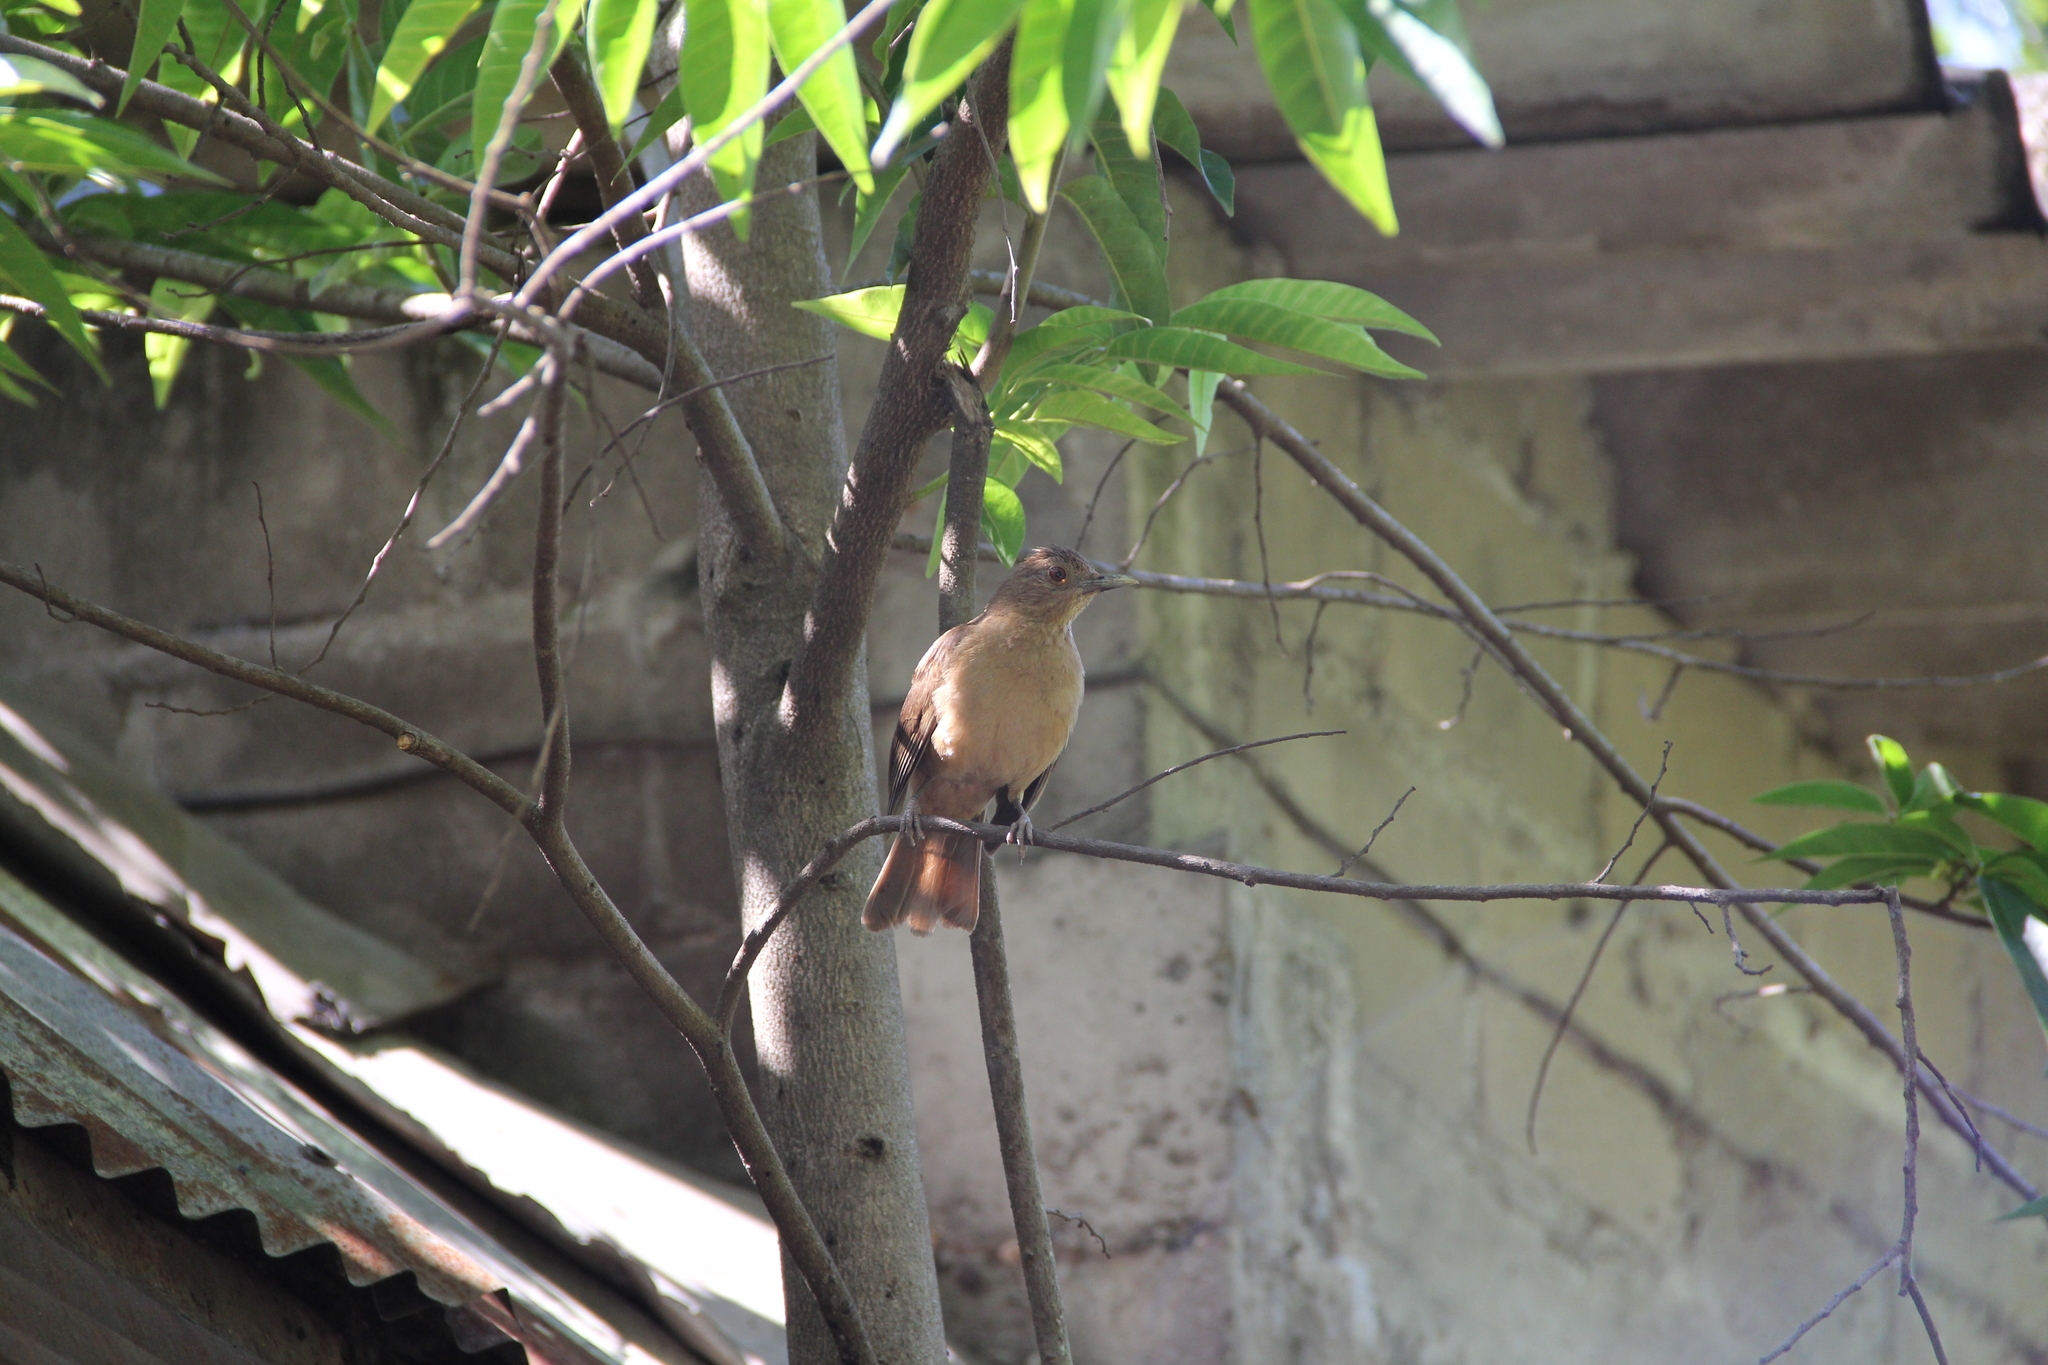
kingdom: Animalia
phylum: Chordata
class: Aves
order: Passeriformes
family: Turdidae
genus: Turdus
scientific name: Turdus grayi
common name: Clay-colored thrush
